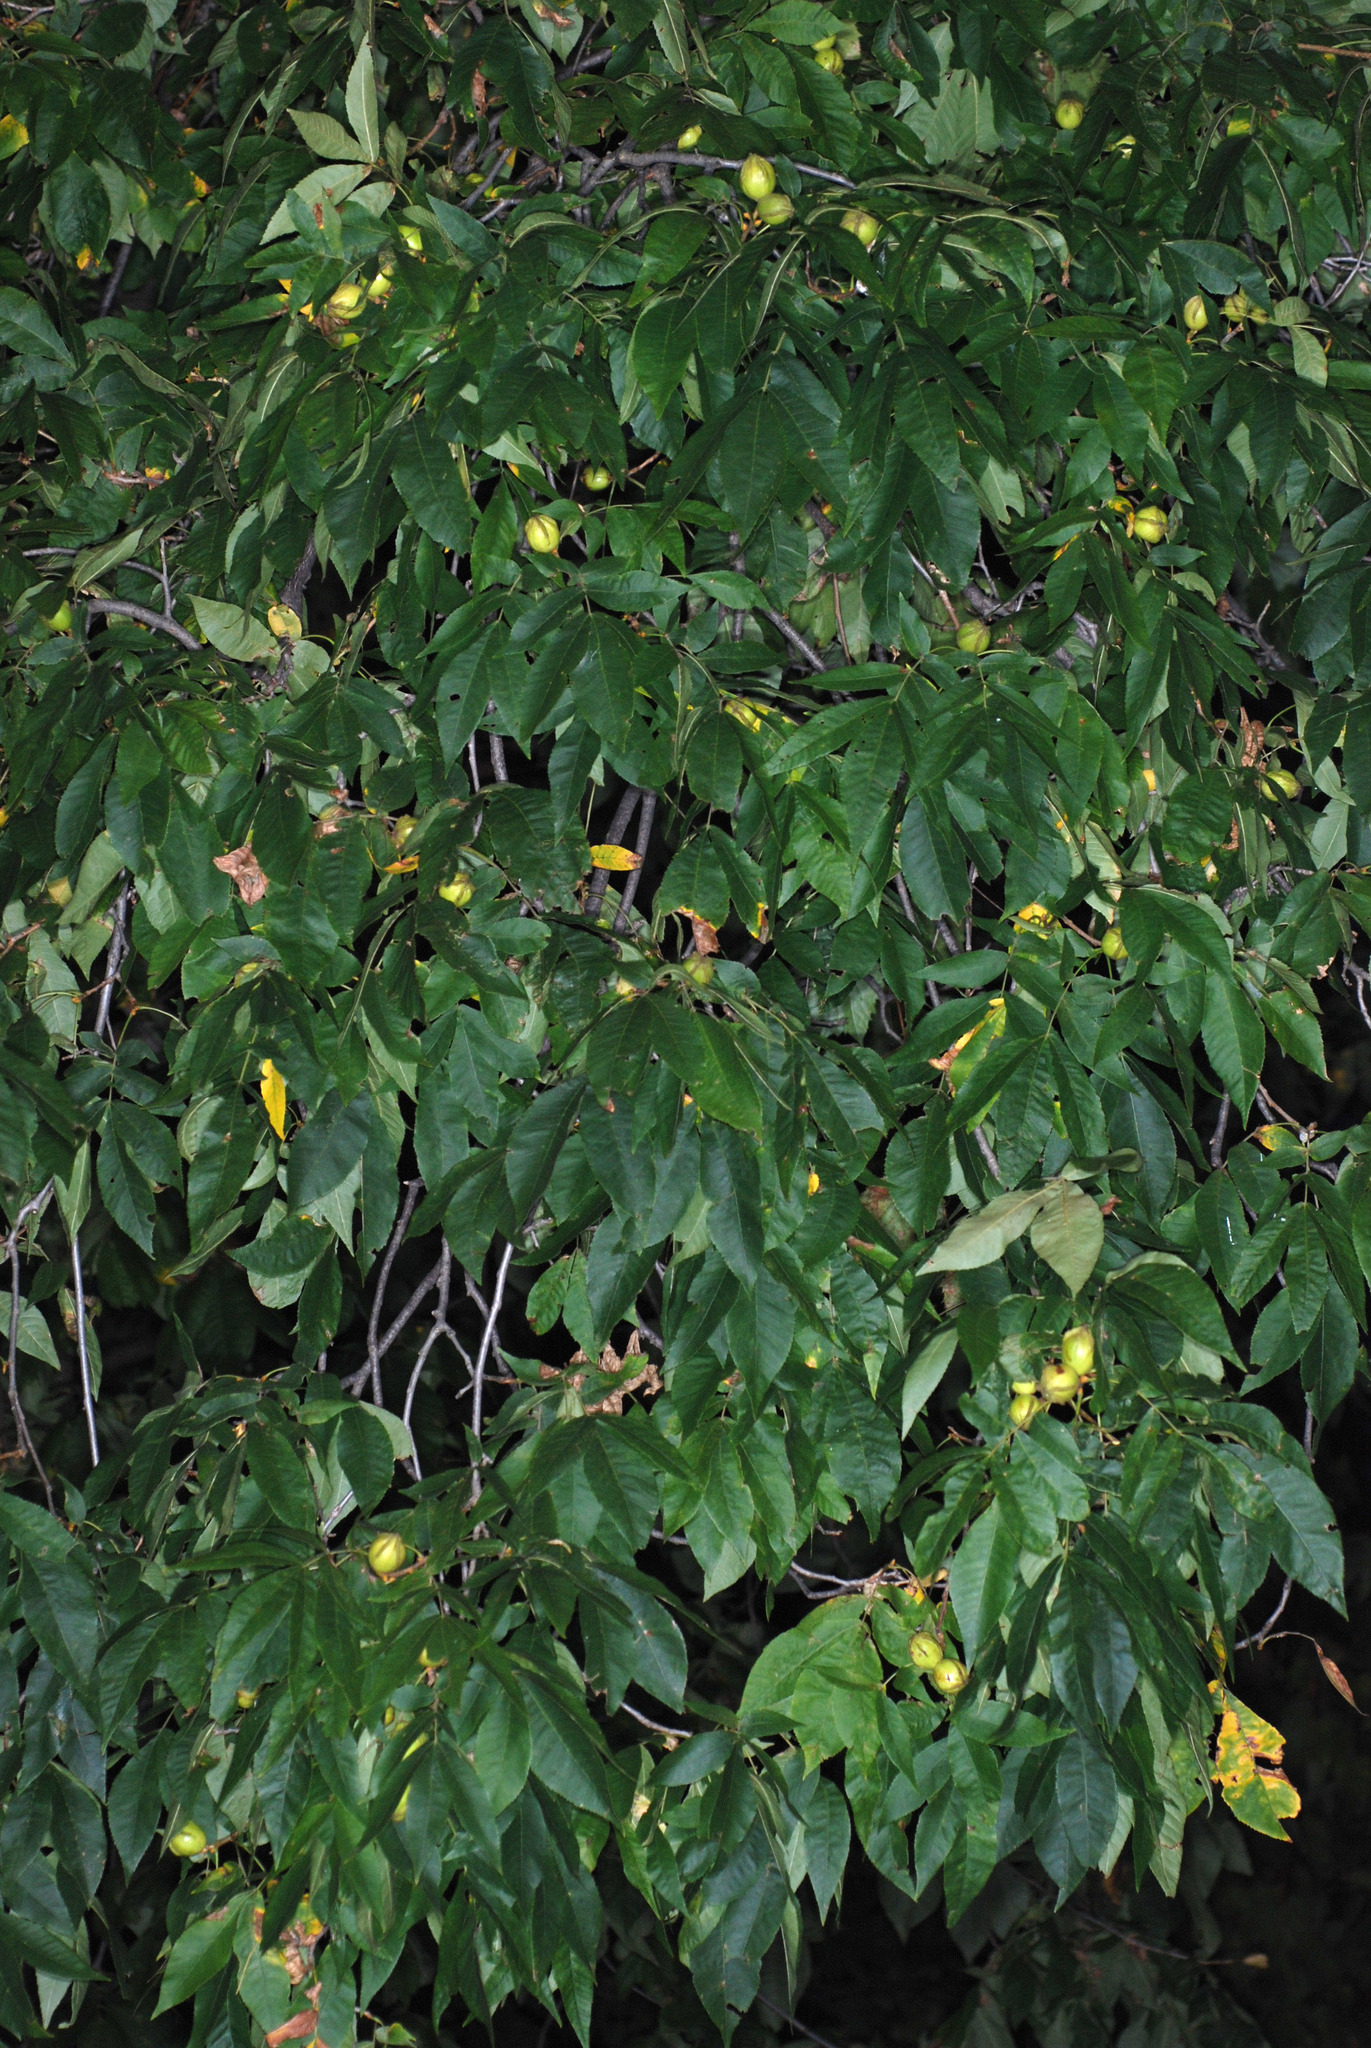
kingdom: Plantae
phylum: Tracheophyta
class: Magnoliopsida
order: Fagales
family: Juglandaceae
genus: Carya
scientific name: Carya cordiformis
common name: Bitternut hickory
